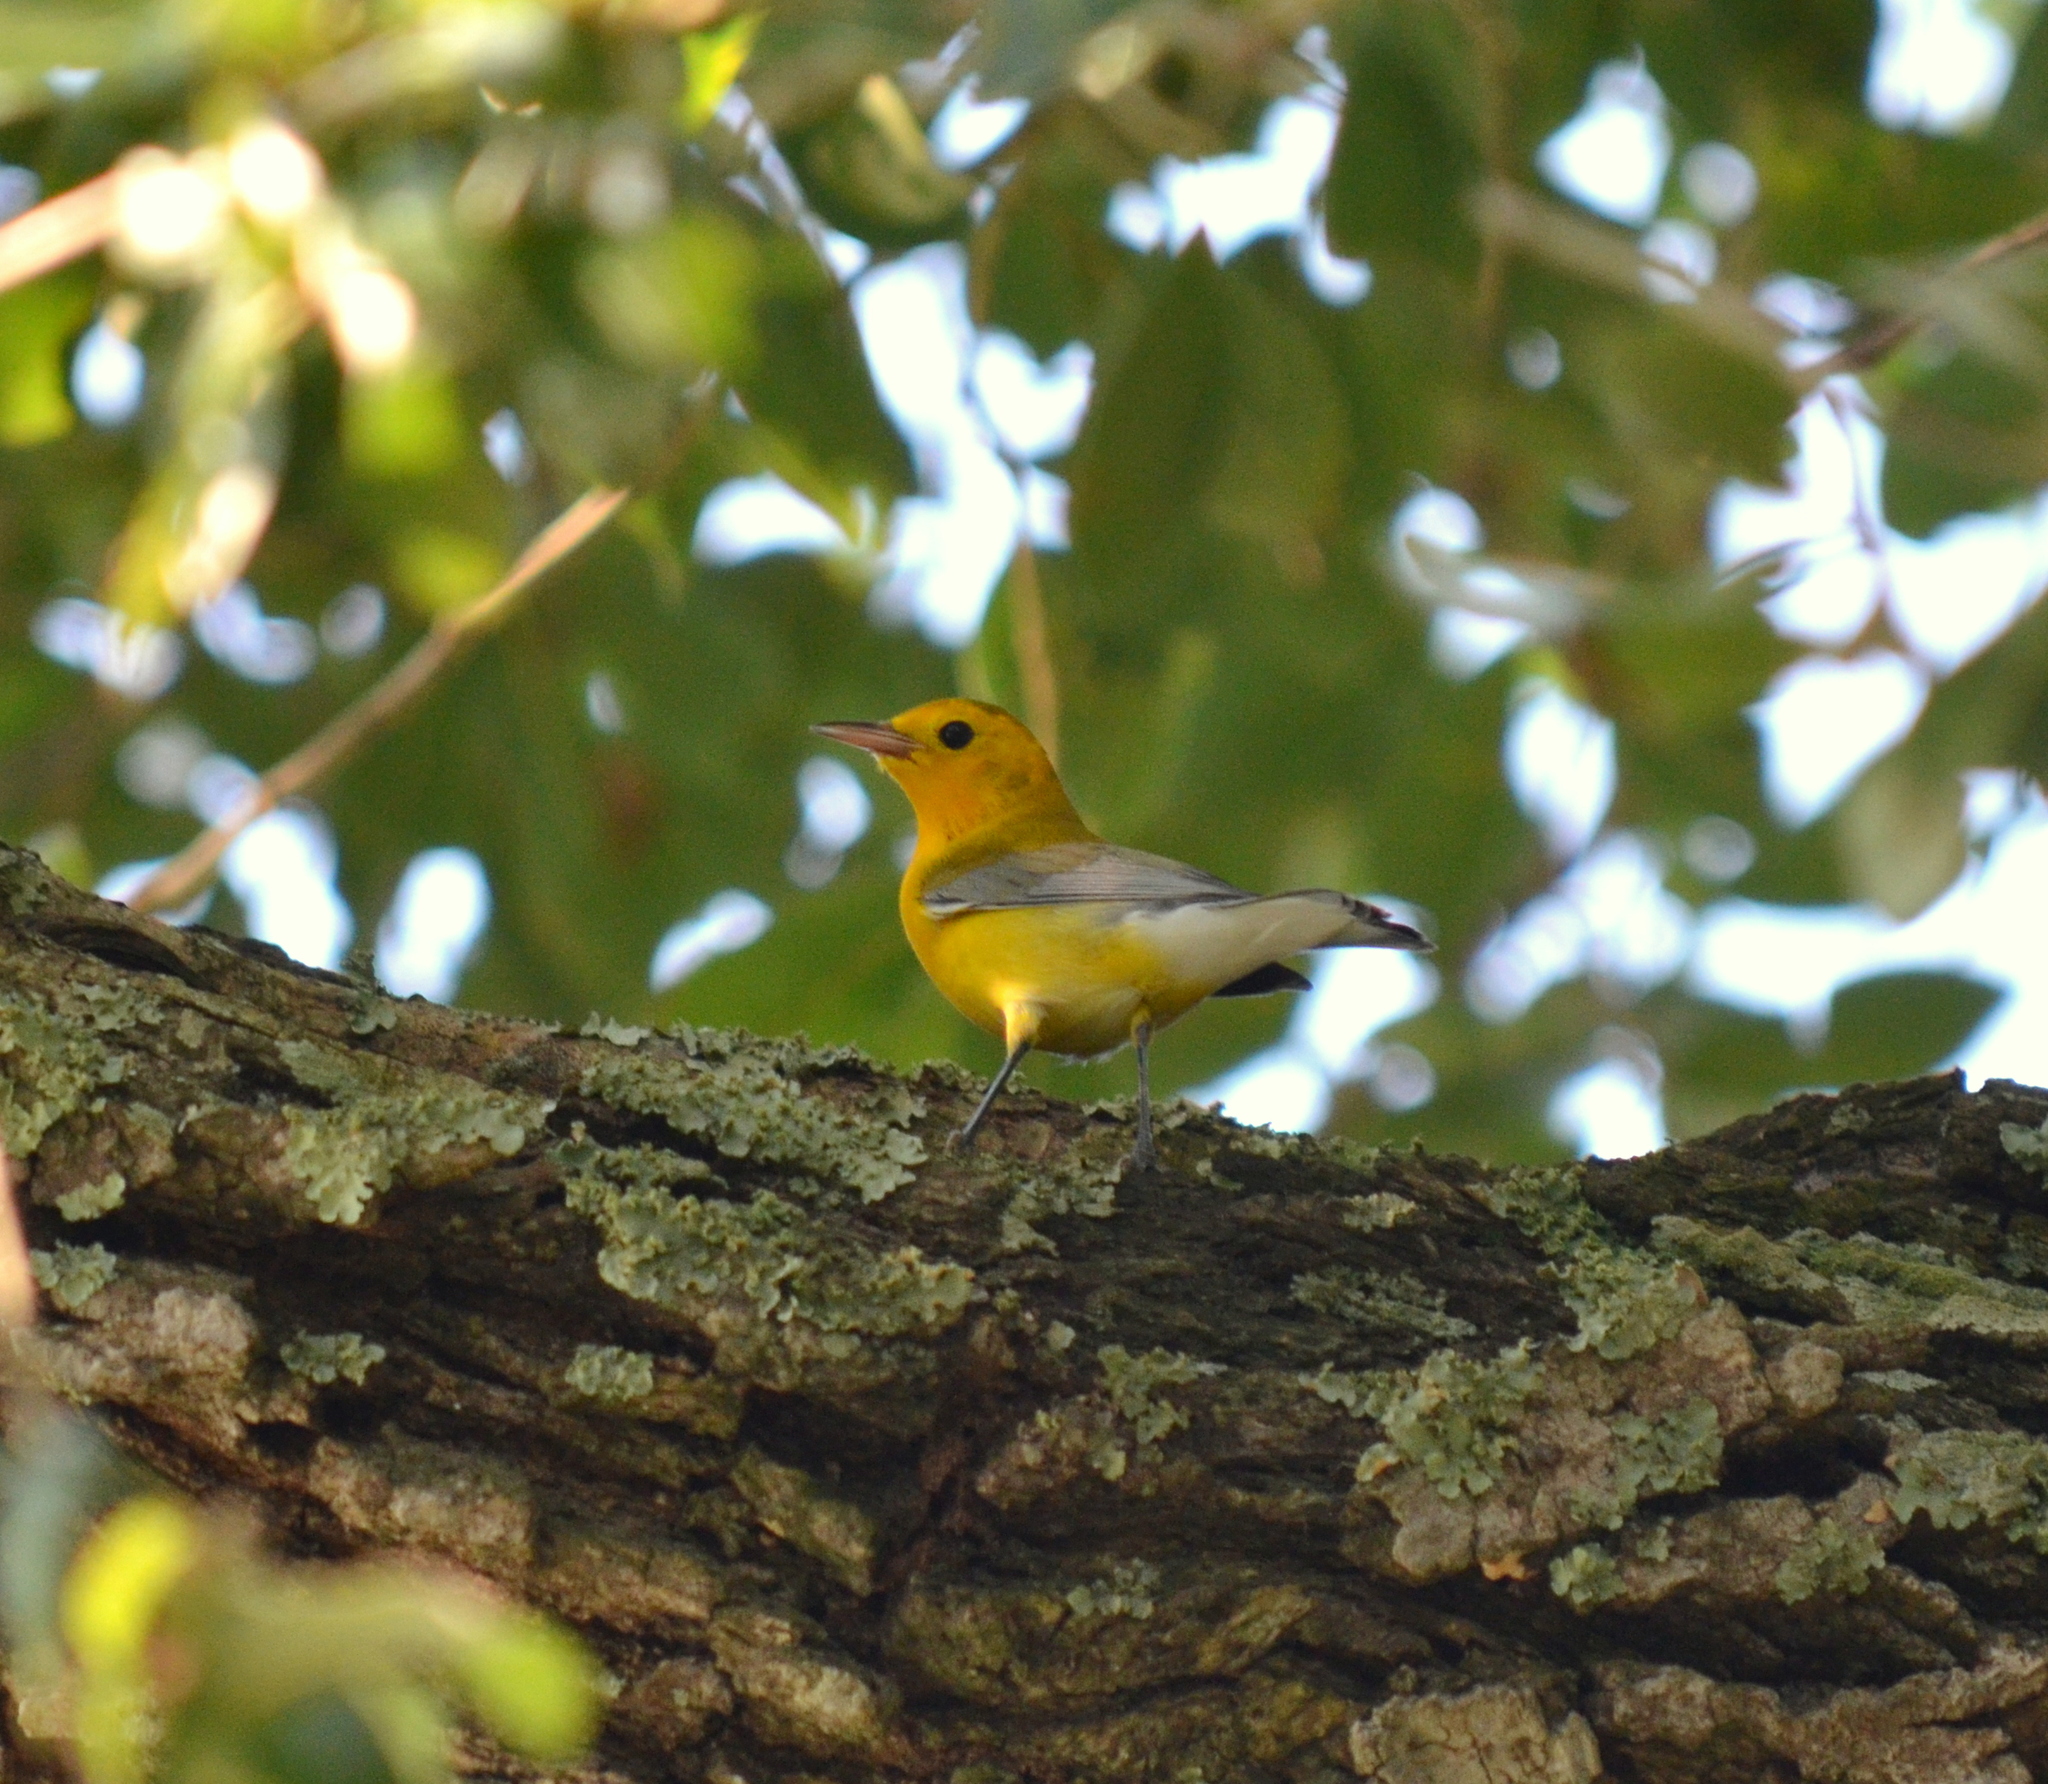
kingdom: Animalia
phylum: Chordata
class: Aves
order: Passeriformes
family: Parulidae
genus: Protonotaria
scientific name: Protonotaria citrea
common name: Prothonotary warbler
